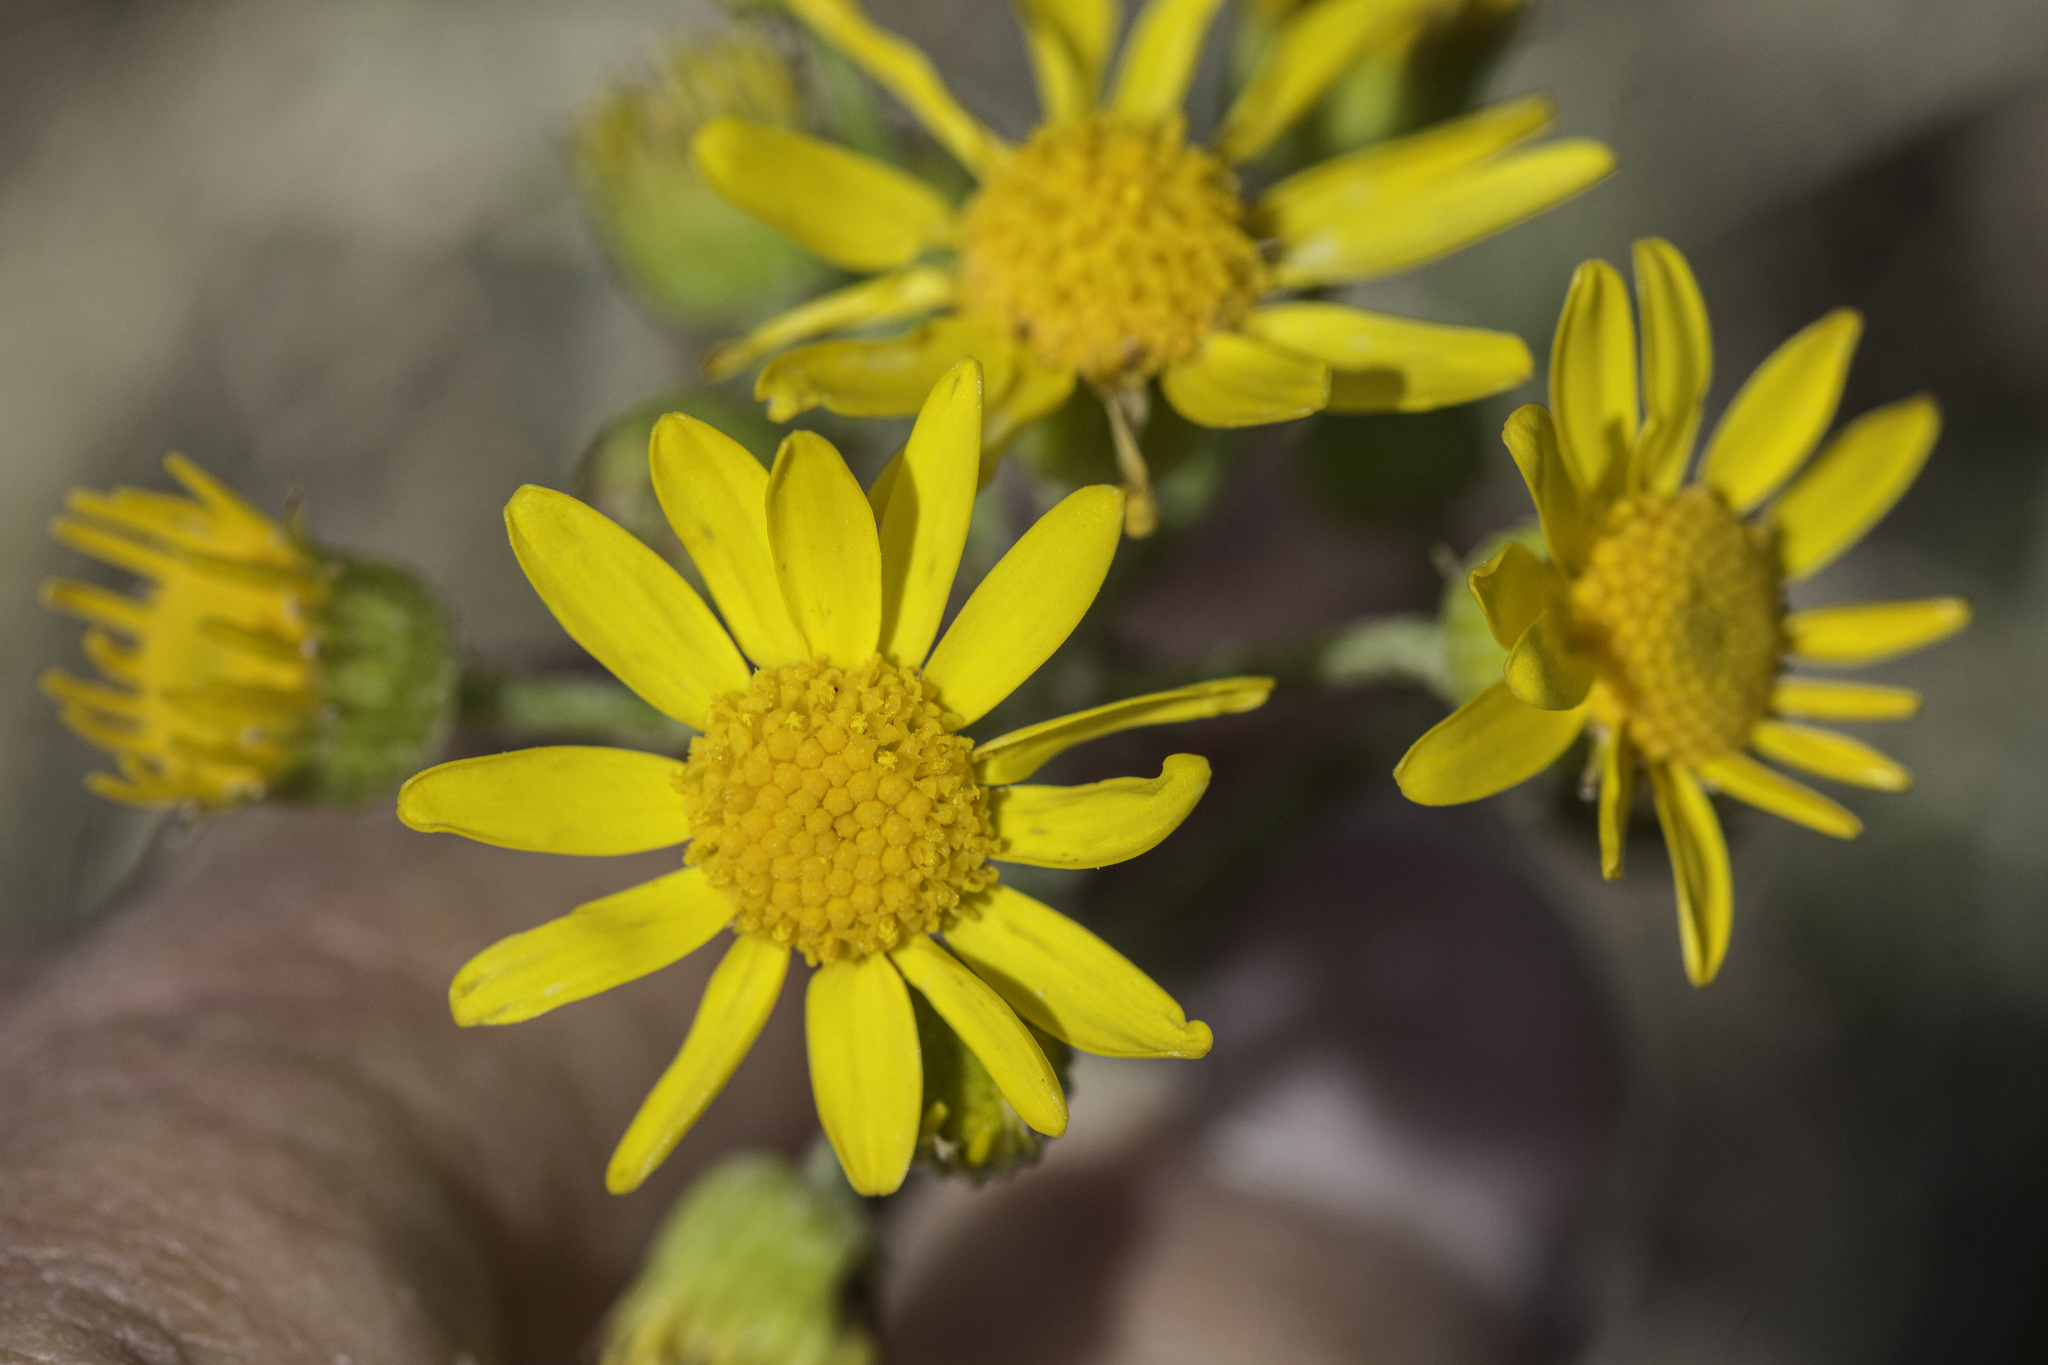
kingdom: Plantae
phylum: Tracheophyta
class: Magnoliopsida
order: Asterales
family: Asteraceae
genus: Packera
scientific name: Packera plattensis
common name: Prairie groundsel
